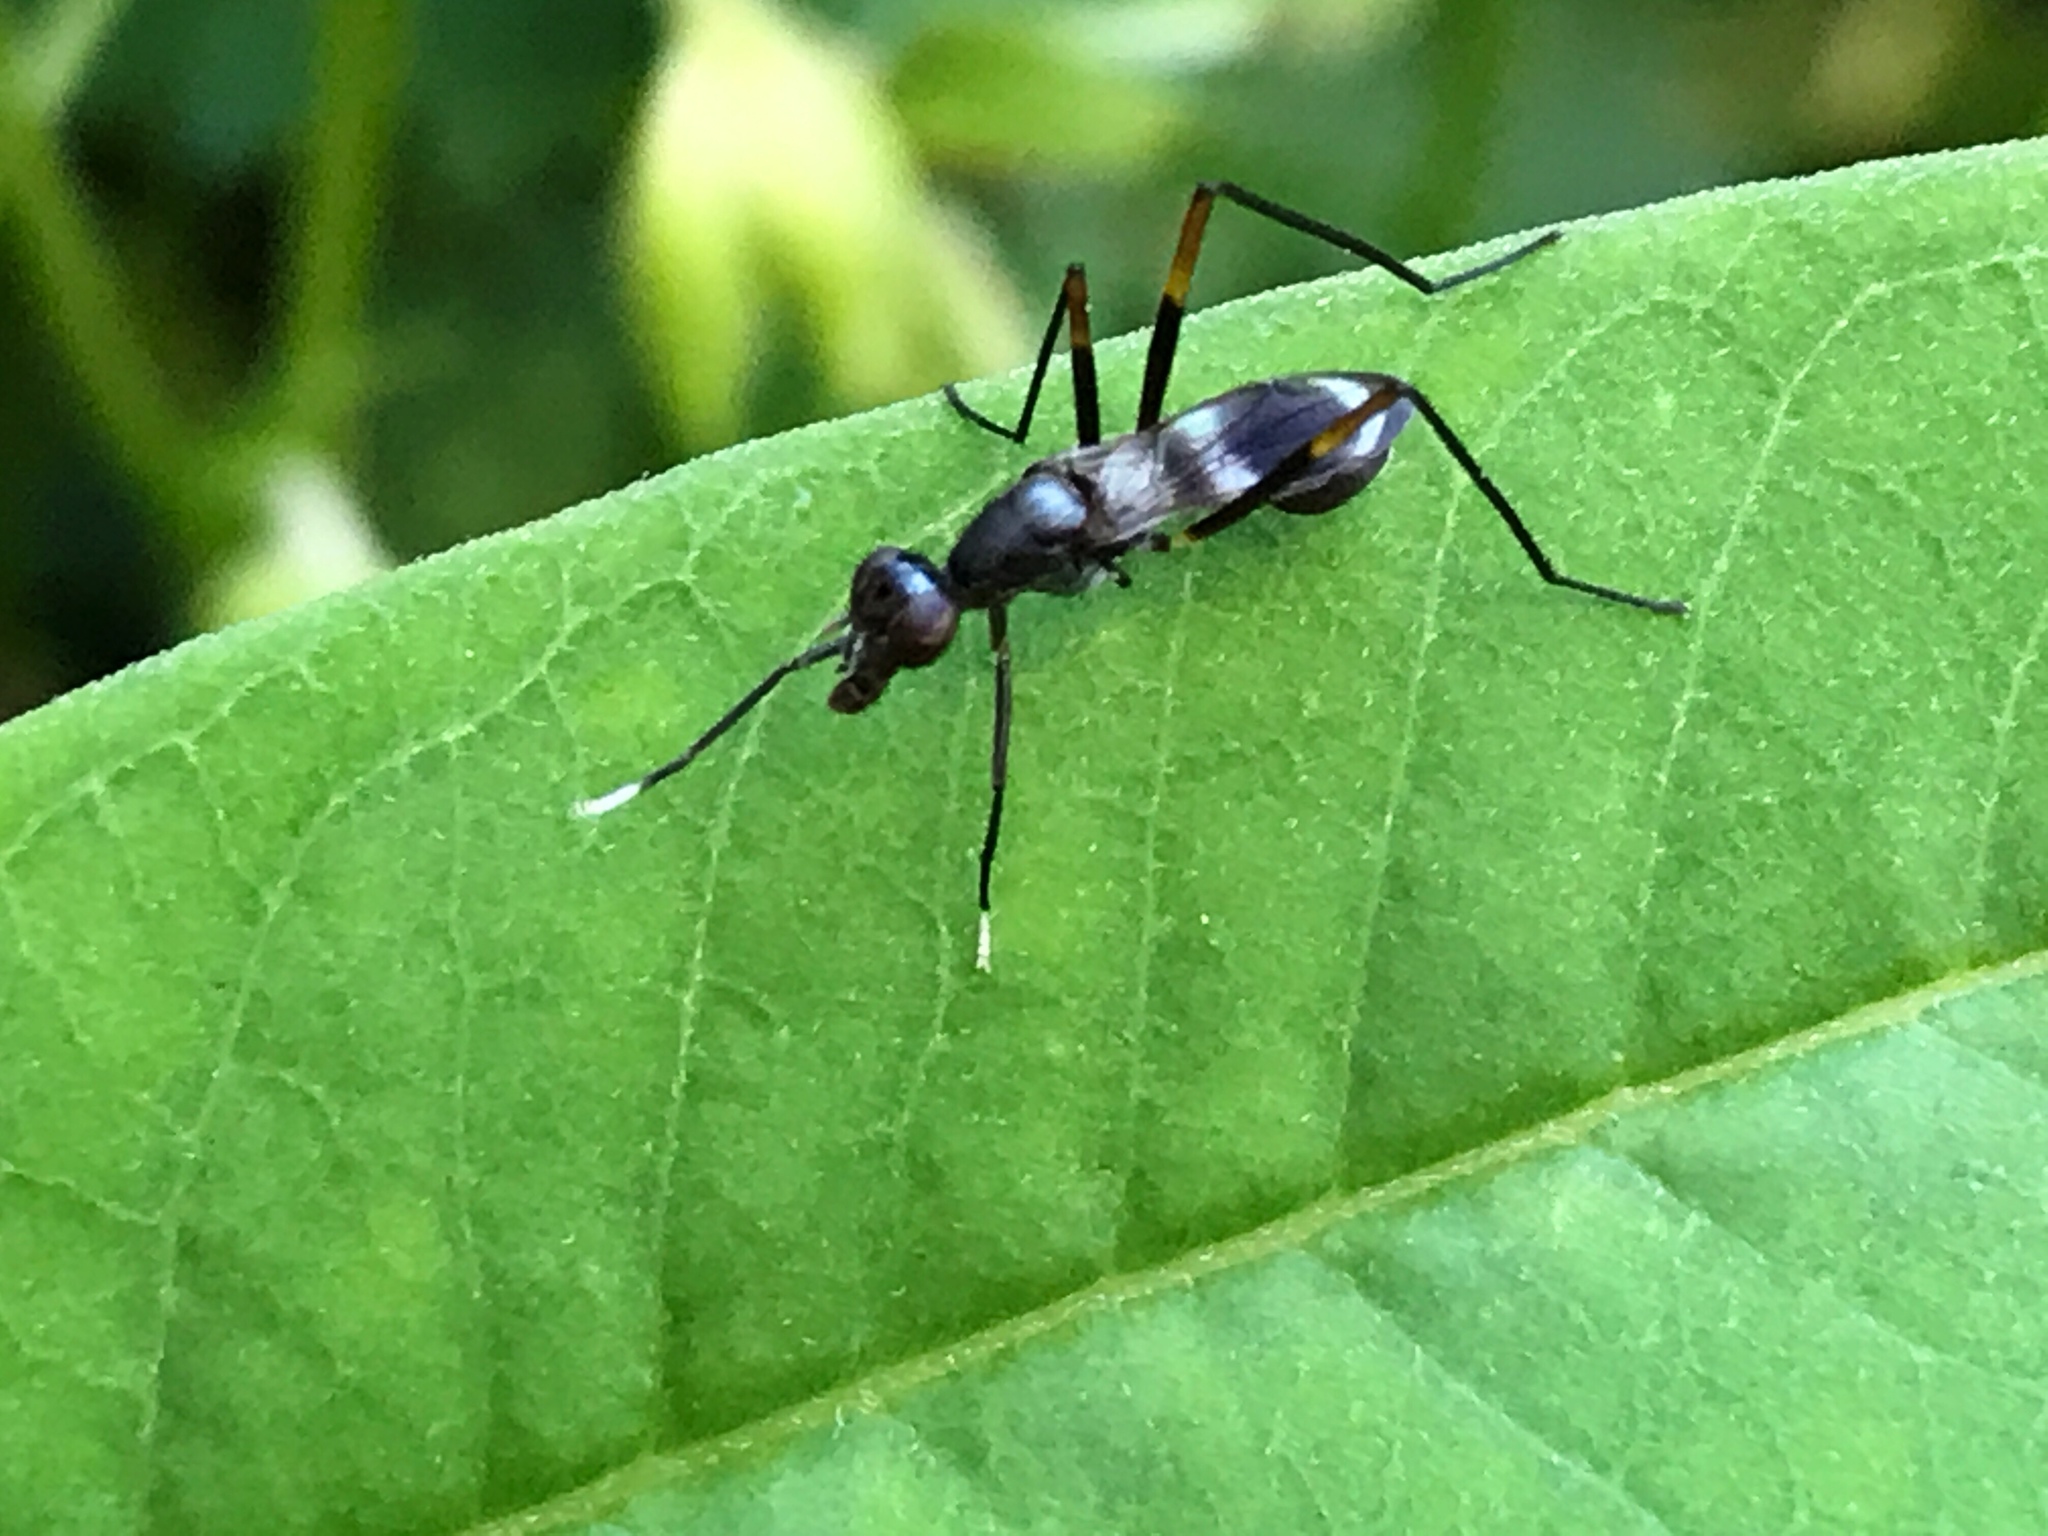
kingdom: Animalia
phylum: Arthropoda
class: Insecta
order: Diptera
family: Micropezidae
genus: Taeniaptera
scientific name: Taeniaptera trivittata
